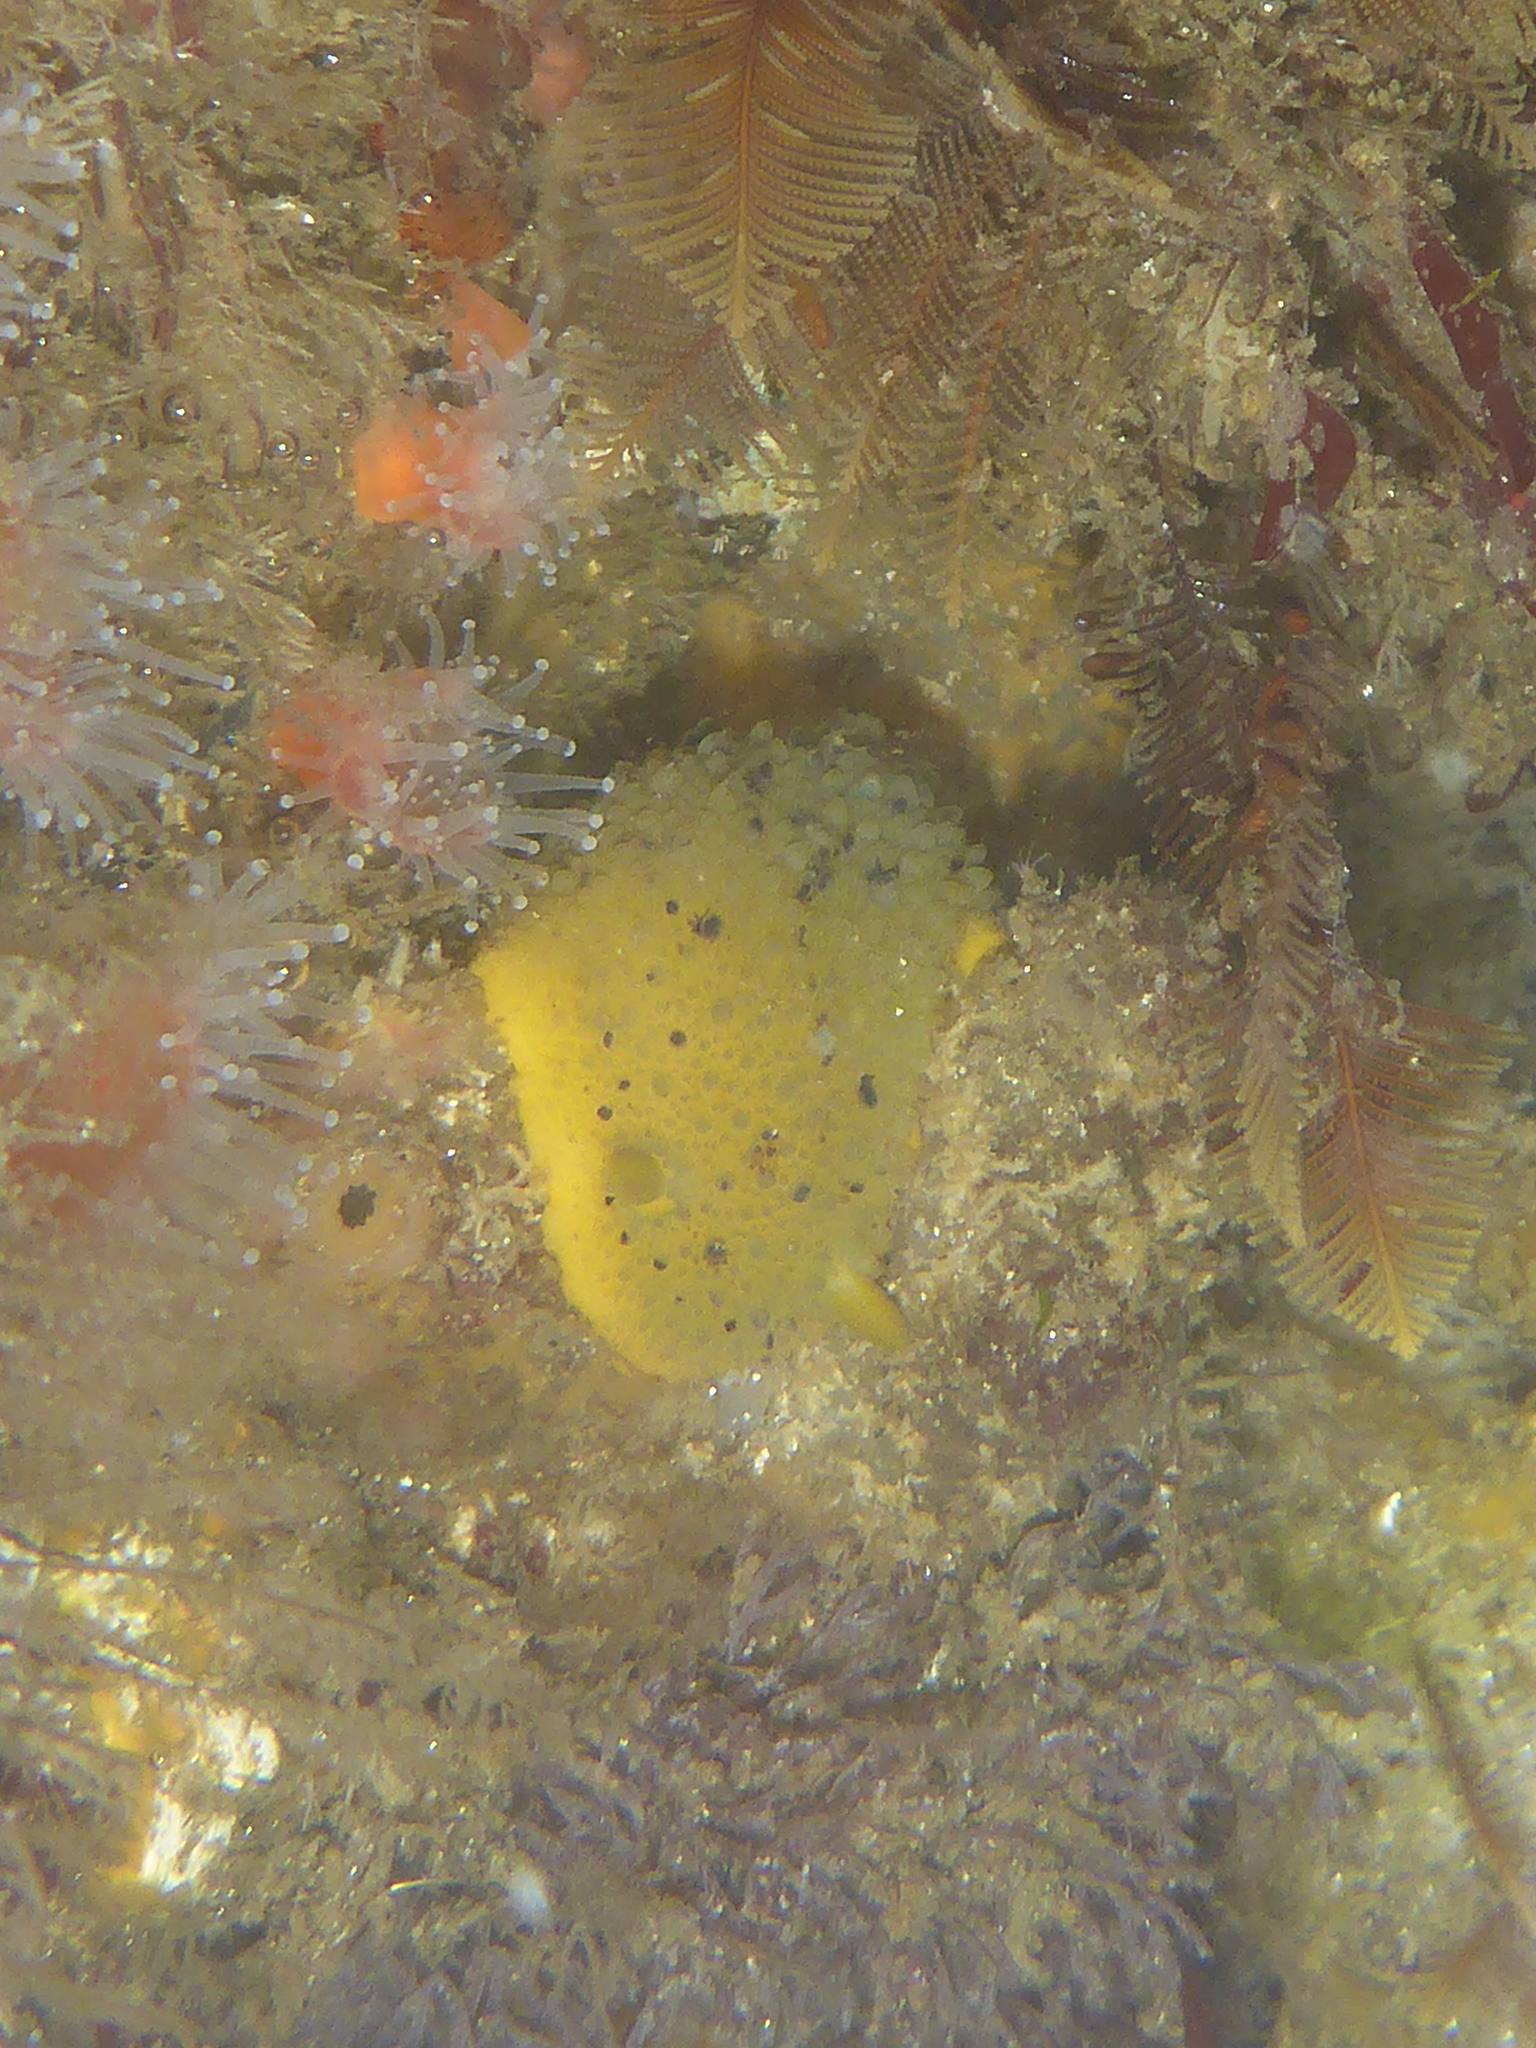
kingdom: Animalia
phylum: Mollusca
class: Gastropoda
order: Nudibranchia
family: Dorididae
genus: Doris
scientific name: Doris montereyensis
